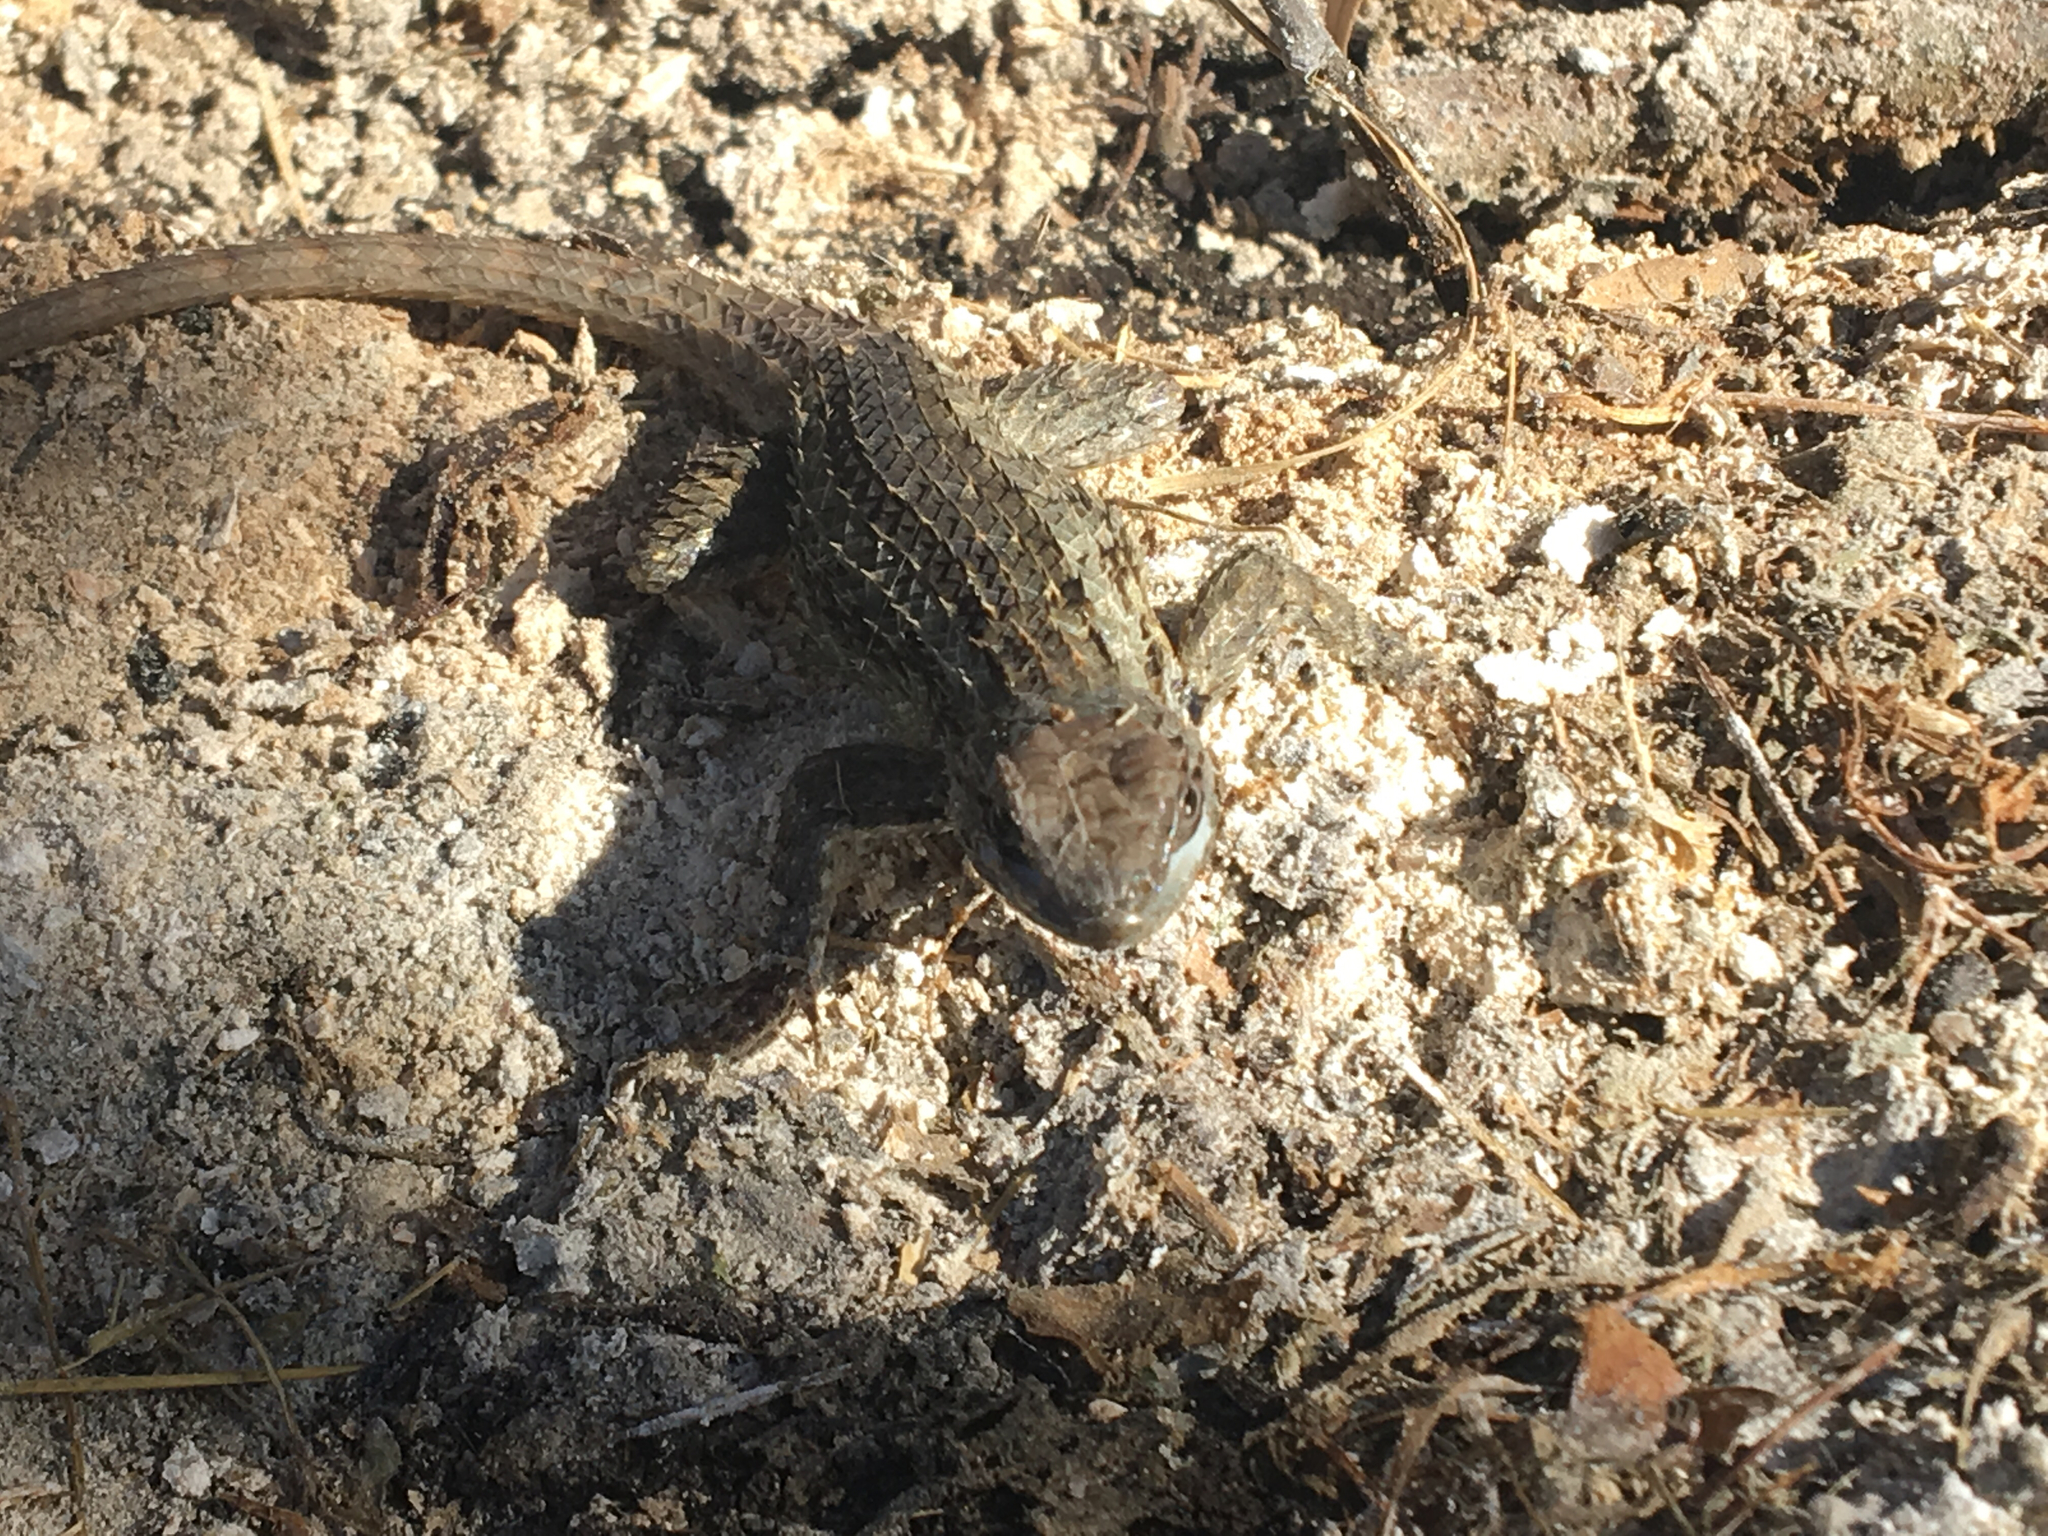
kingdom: Animalia
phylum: Chordata
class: Squamata
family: Phrynosomatidae
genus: Sceloporus
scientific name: Sceloporus olivaceus
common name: Texas spiny lizard
